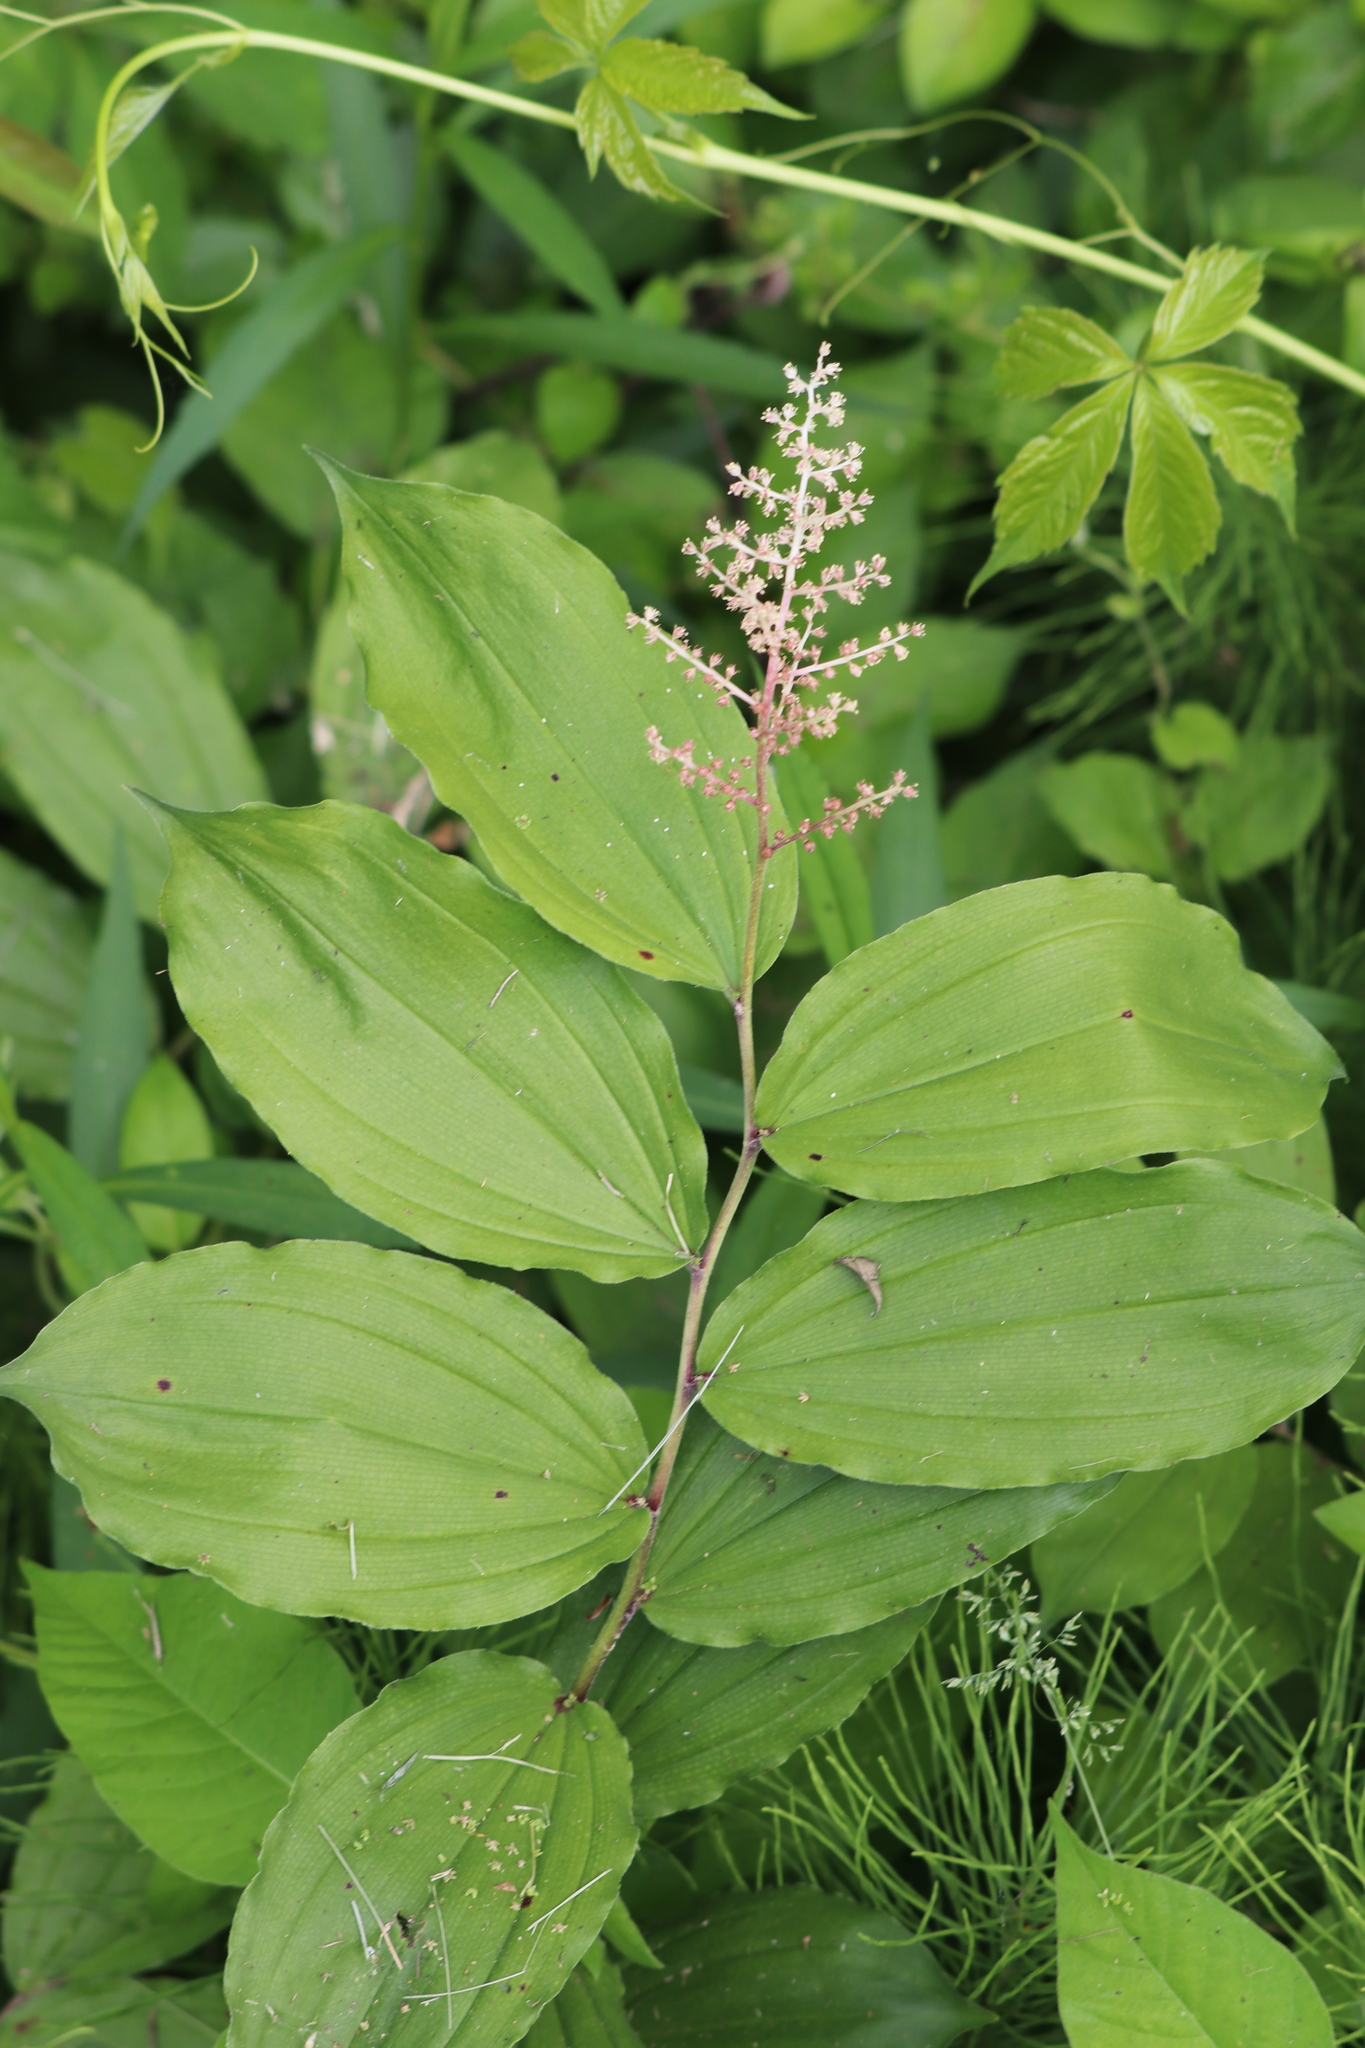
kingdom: Plantae
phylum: Tracheophyta
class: Liliopsida
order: Asparagales
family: Asparagaceae
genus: Maianthemum
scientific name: Maianthemum racemosum
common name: False spikenard
